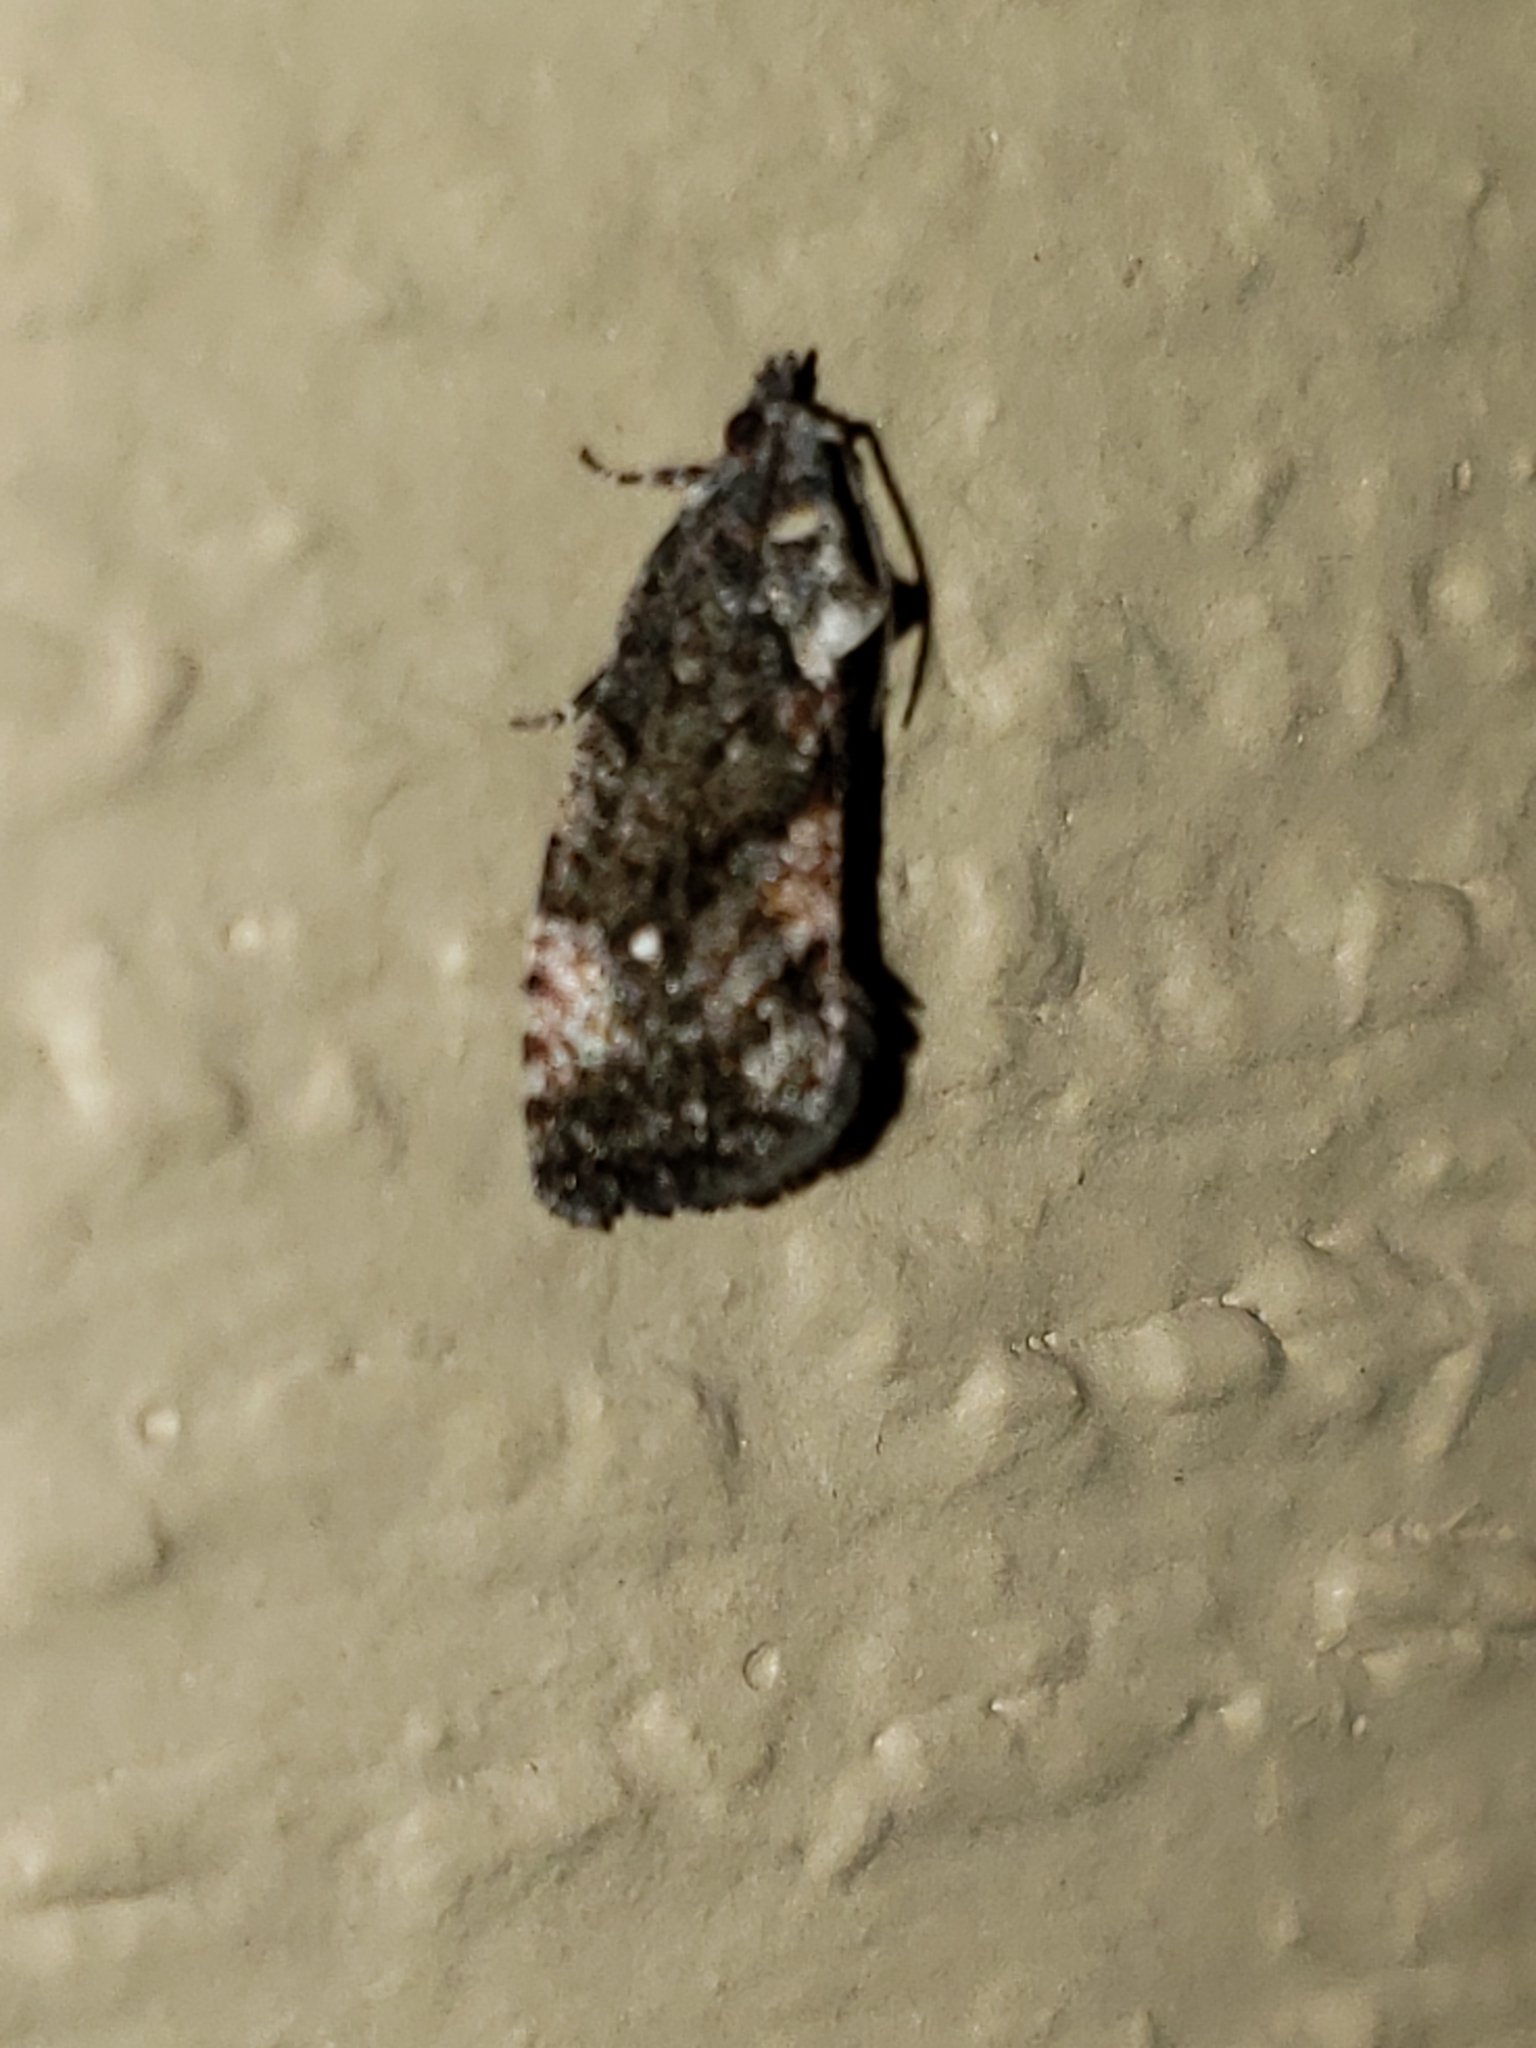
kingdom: Animalia
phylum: Arthropoda
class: Insecta
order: Lepidoptera
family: Tortricidae
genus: Gymnandrosoma
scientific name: Gymnandrosoma punctidiscanum
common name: Dotted ecdytolopha moth
